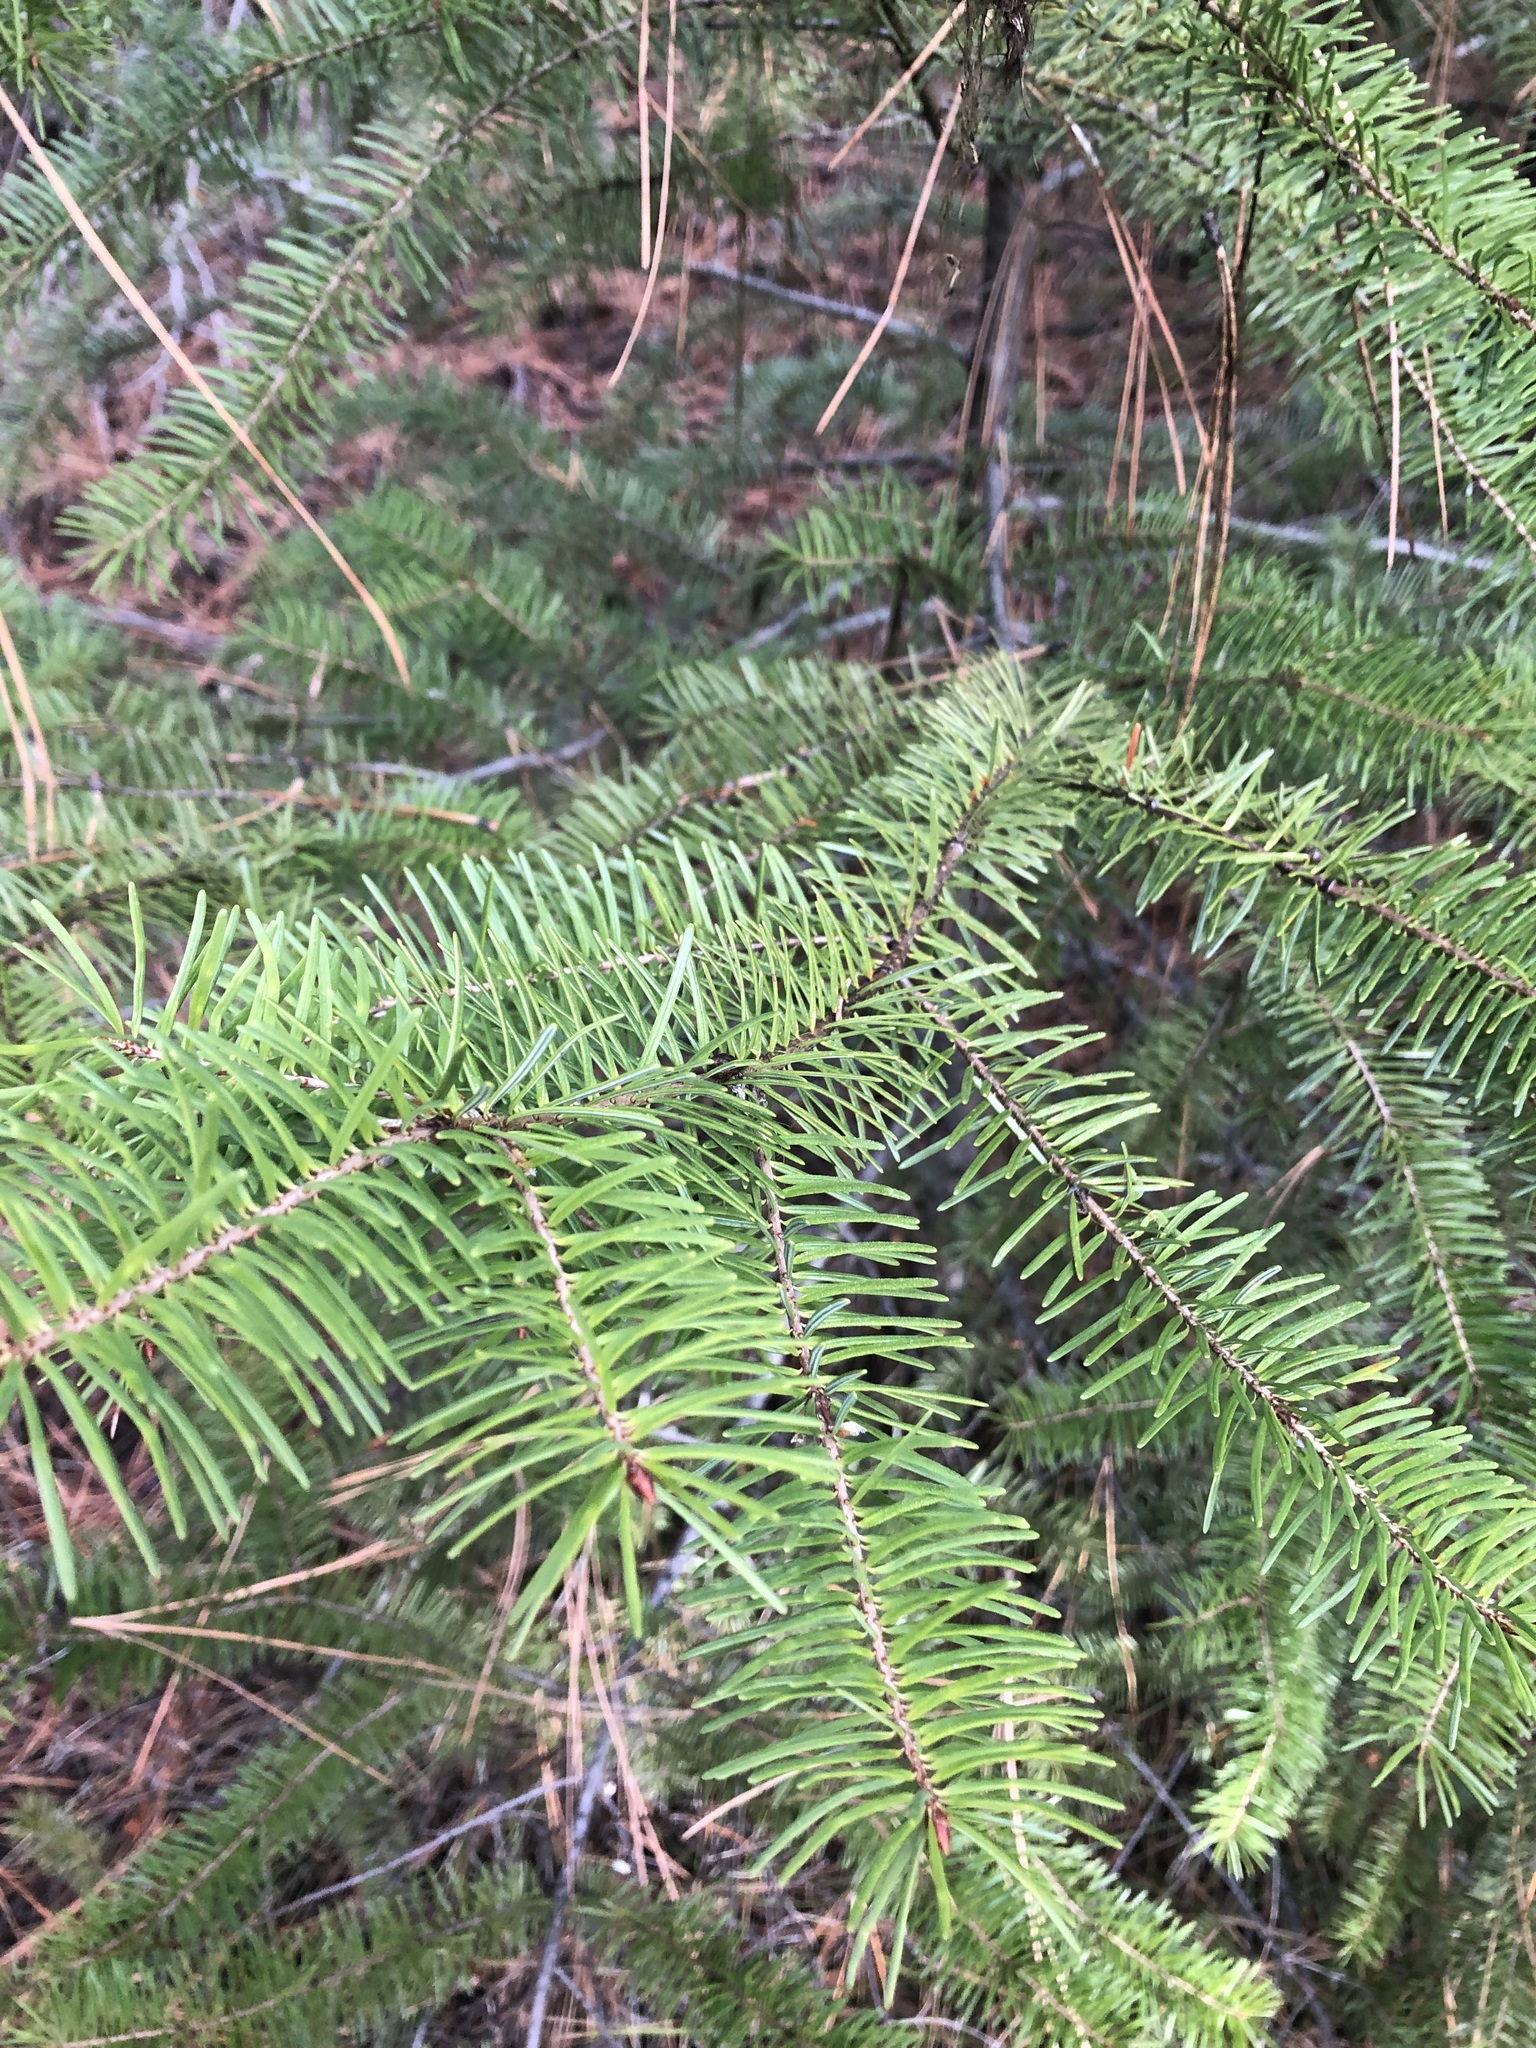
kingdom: Plantae
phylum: Tracheophyta
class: Pinopsida
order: Pinales
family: Pinaceae
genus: Pseudotsuga
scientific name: Pseudotsuga menziesii
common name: Douglas fir
